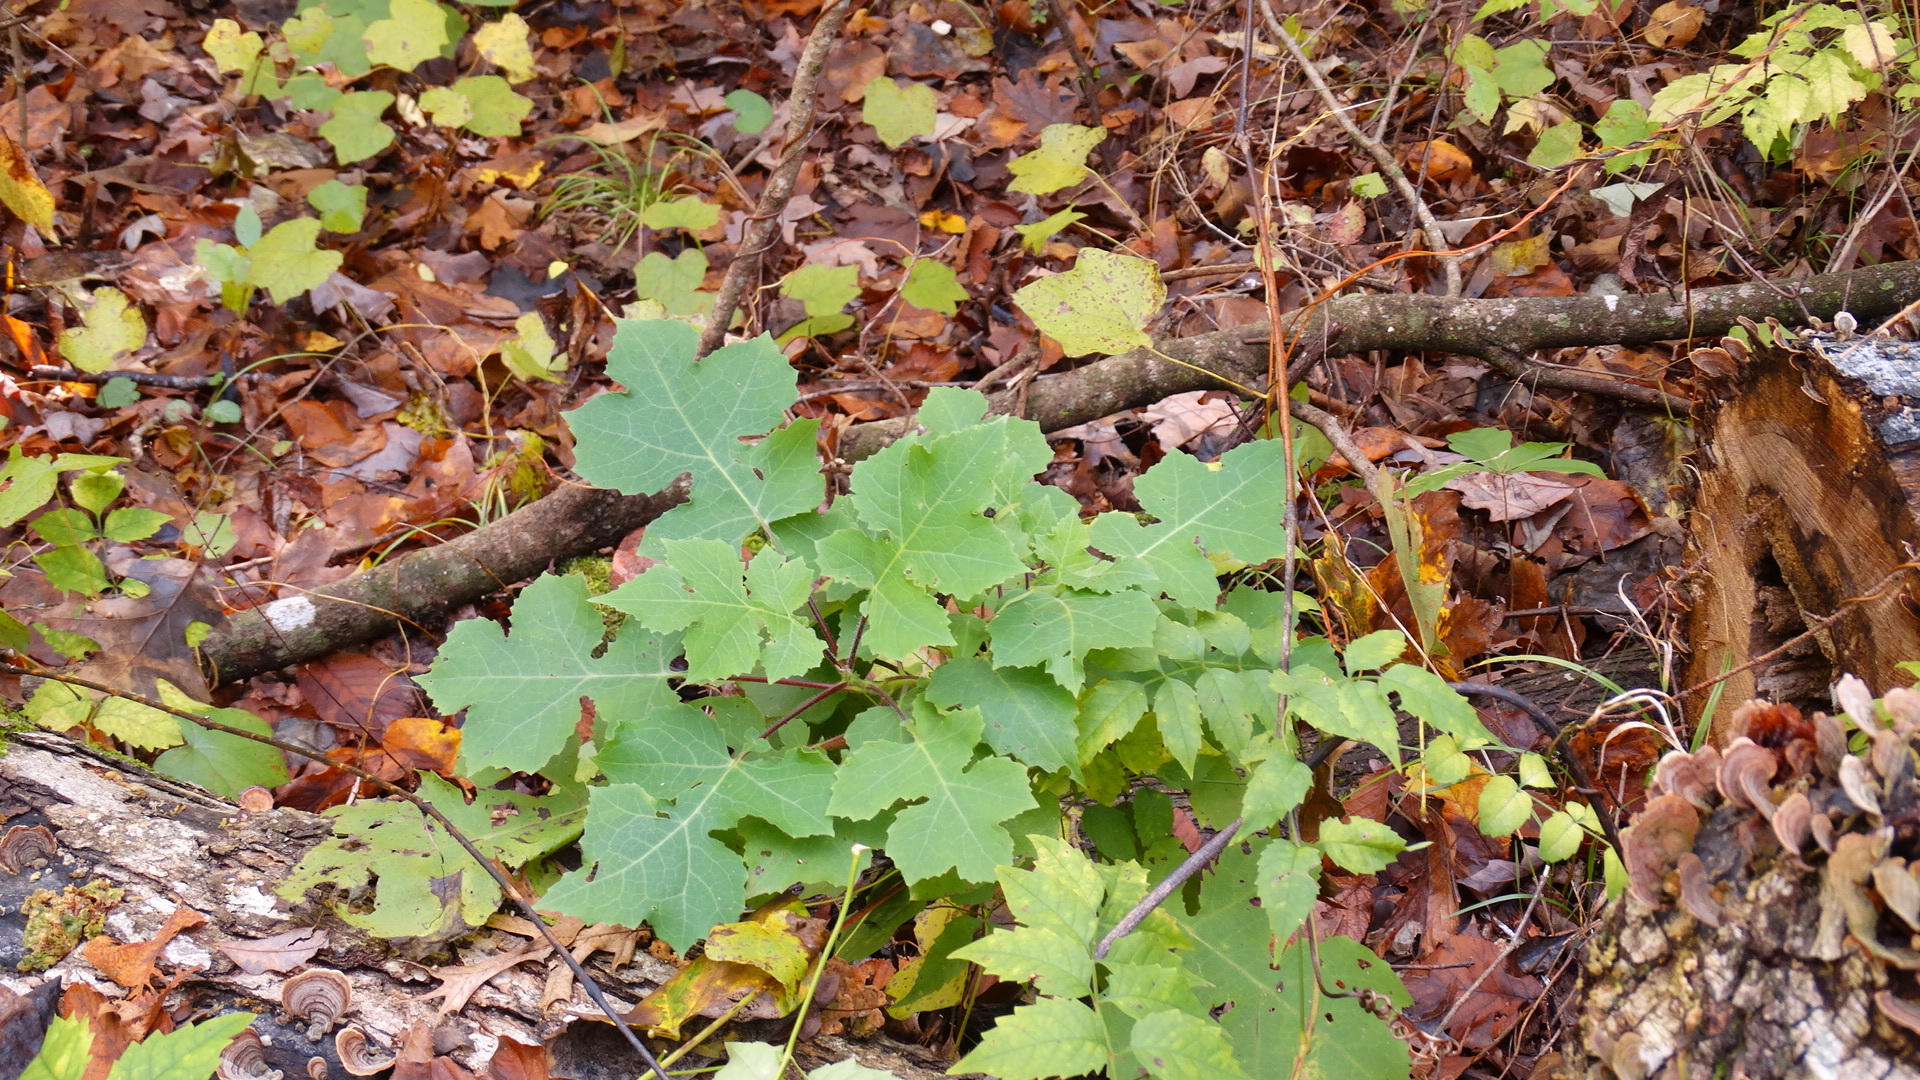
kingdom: Plantae
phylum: Tracheophyta
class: Magnoliopsida
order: Asterales
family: Asteraceae
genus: Polymnia
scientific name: Polymnia canadensis
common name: Pale-flowered leafcup
